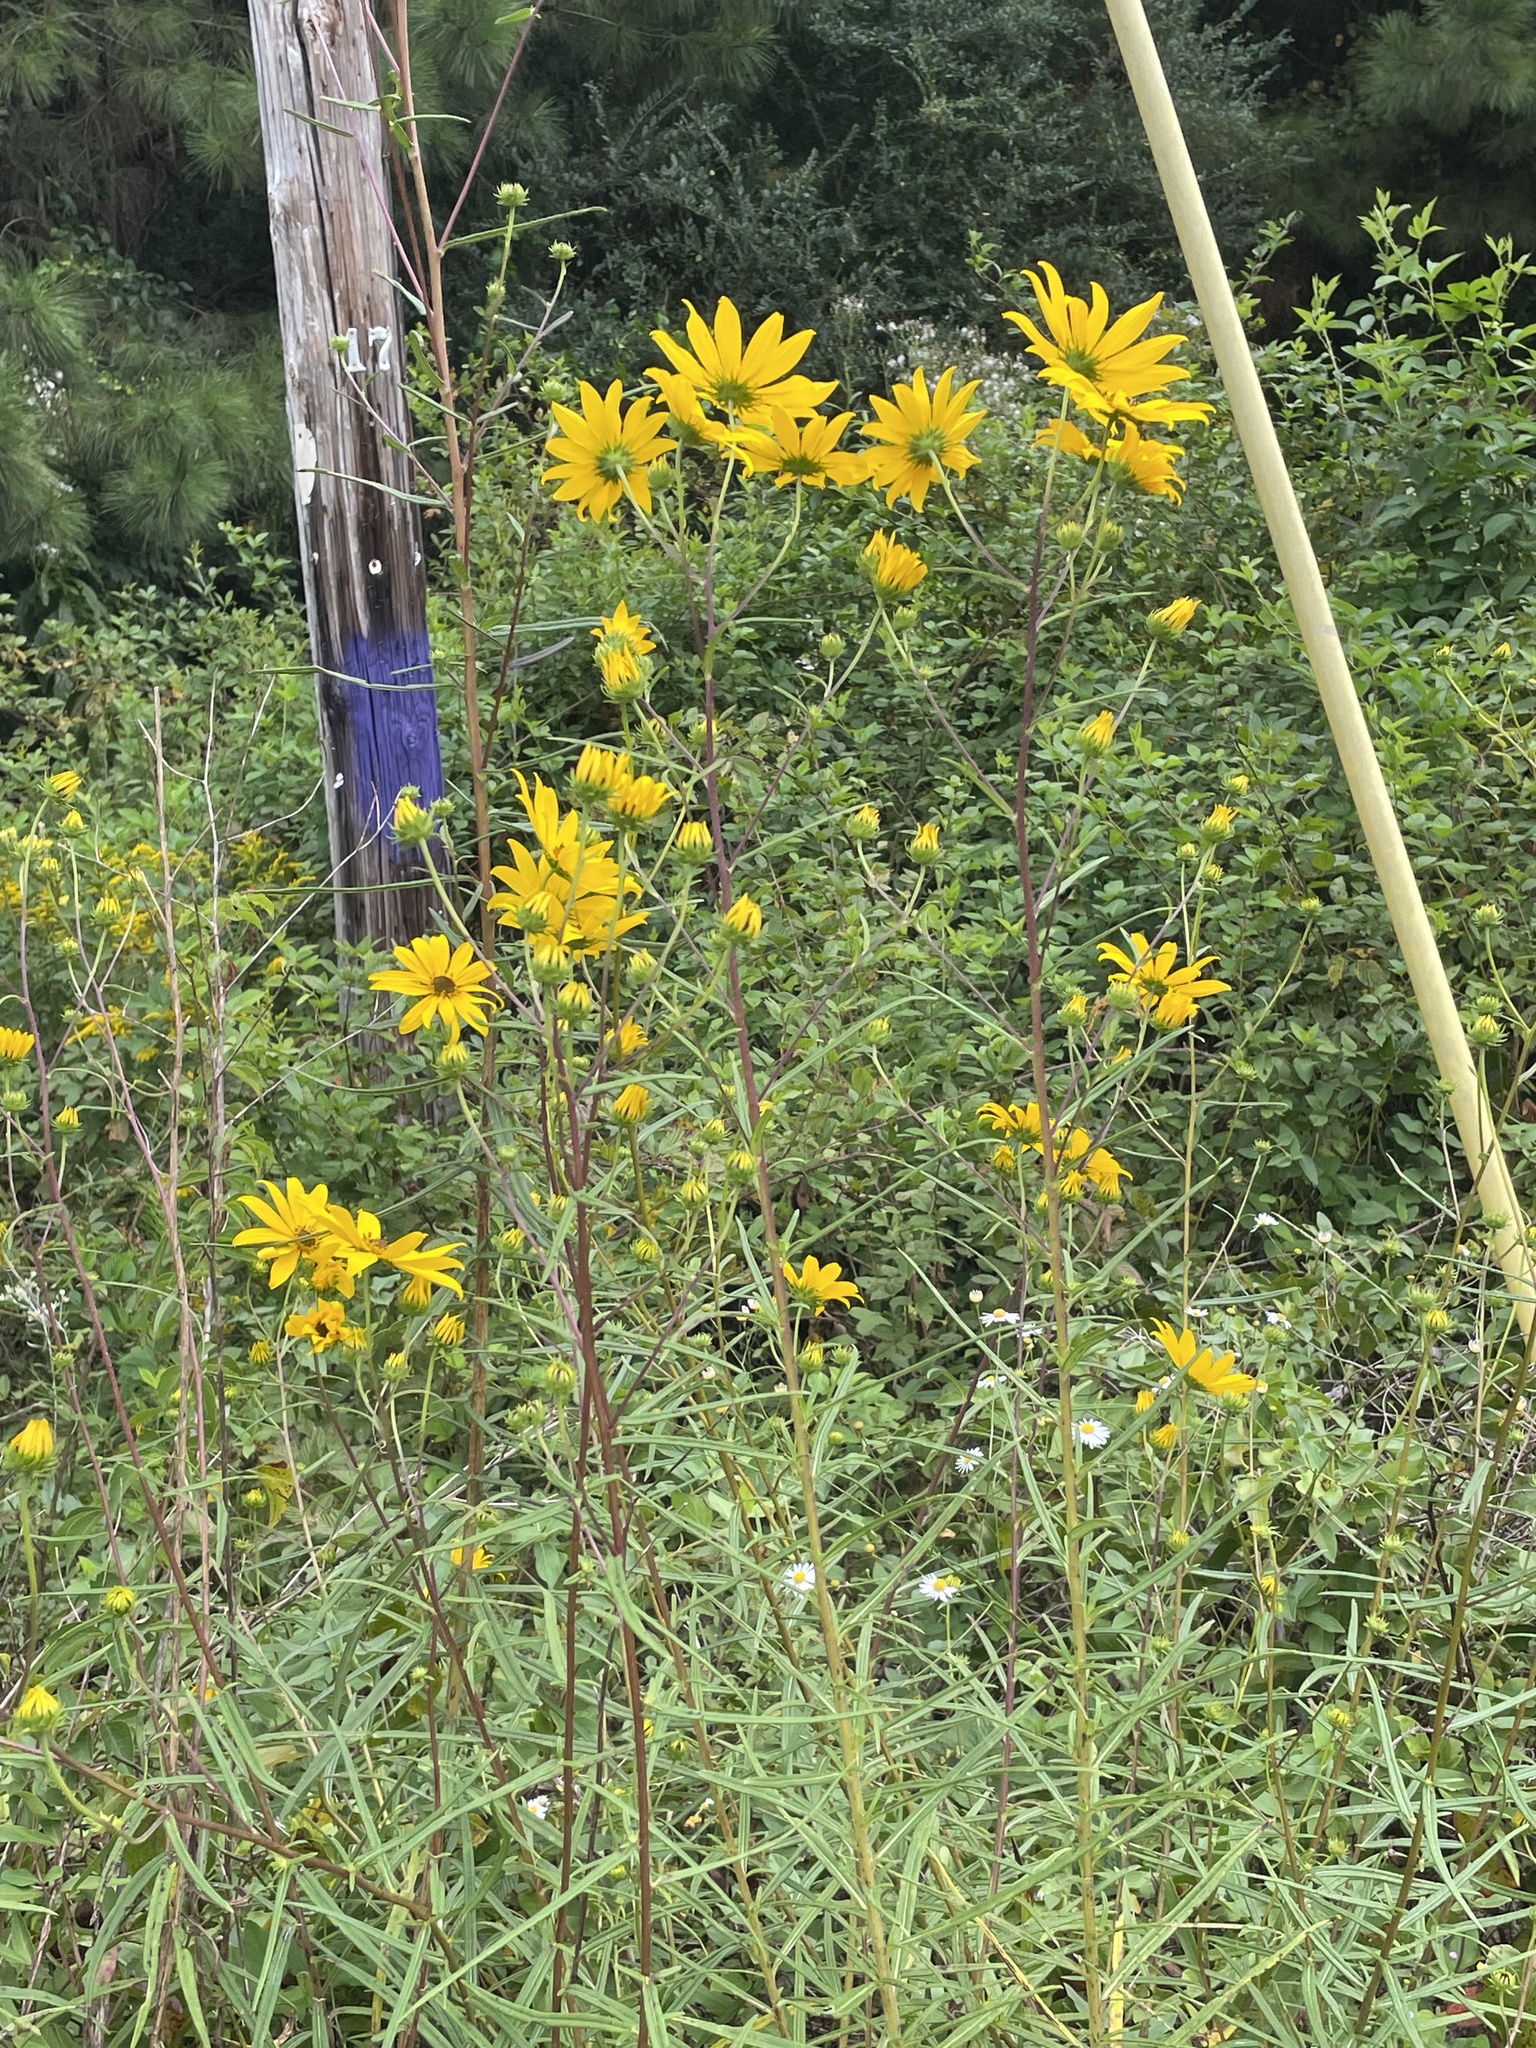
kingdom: Plantae
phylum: Tracheophyta
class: Magnoliopsida
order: Asterales
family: Asteraceae
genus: Helianthus
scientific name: Helianthus angustifolius
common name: Swamp sunflower
